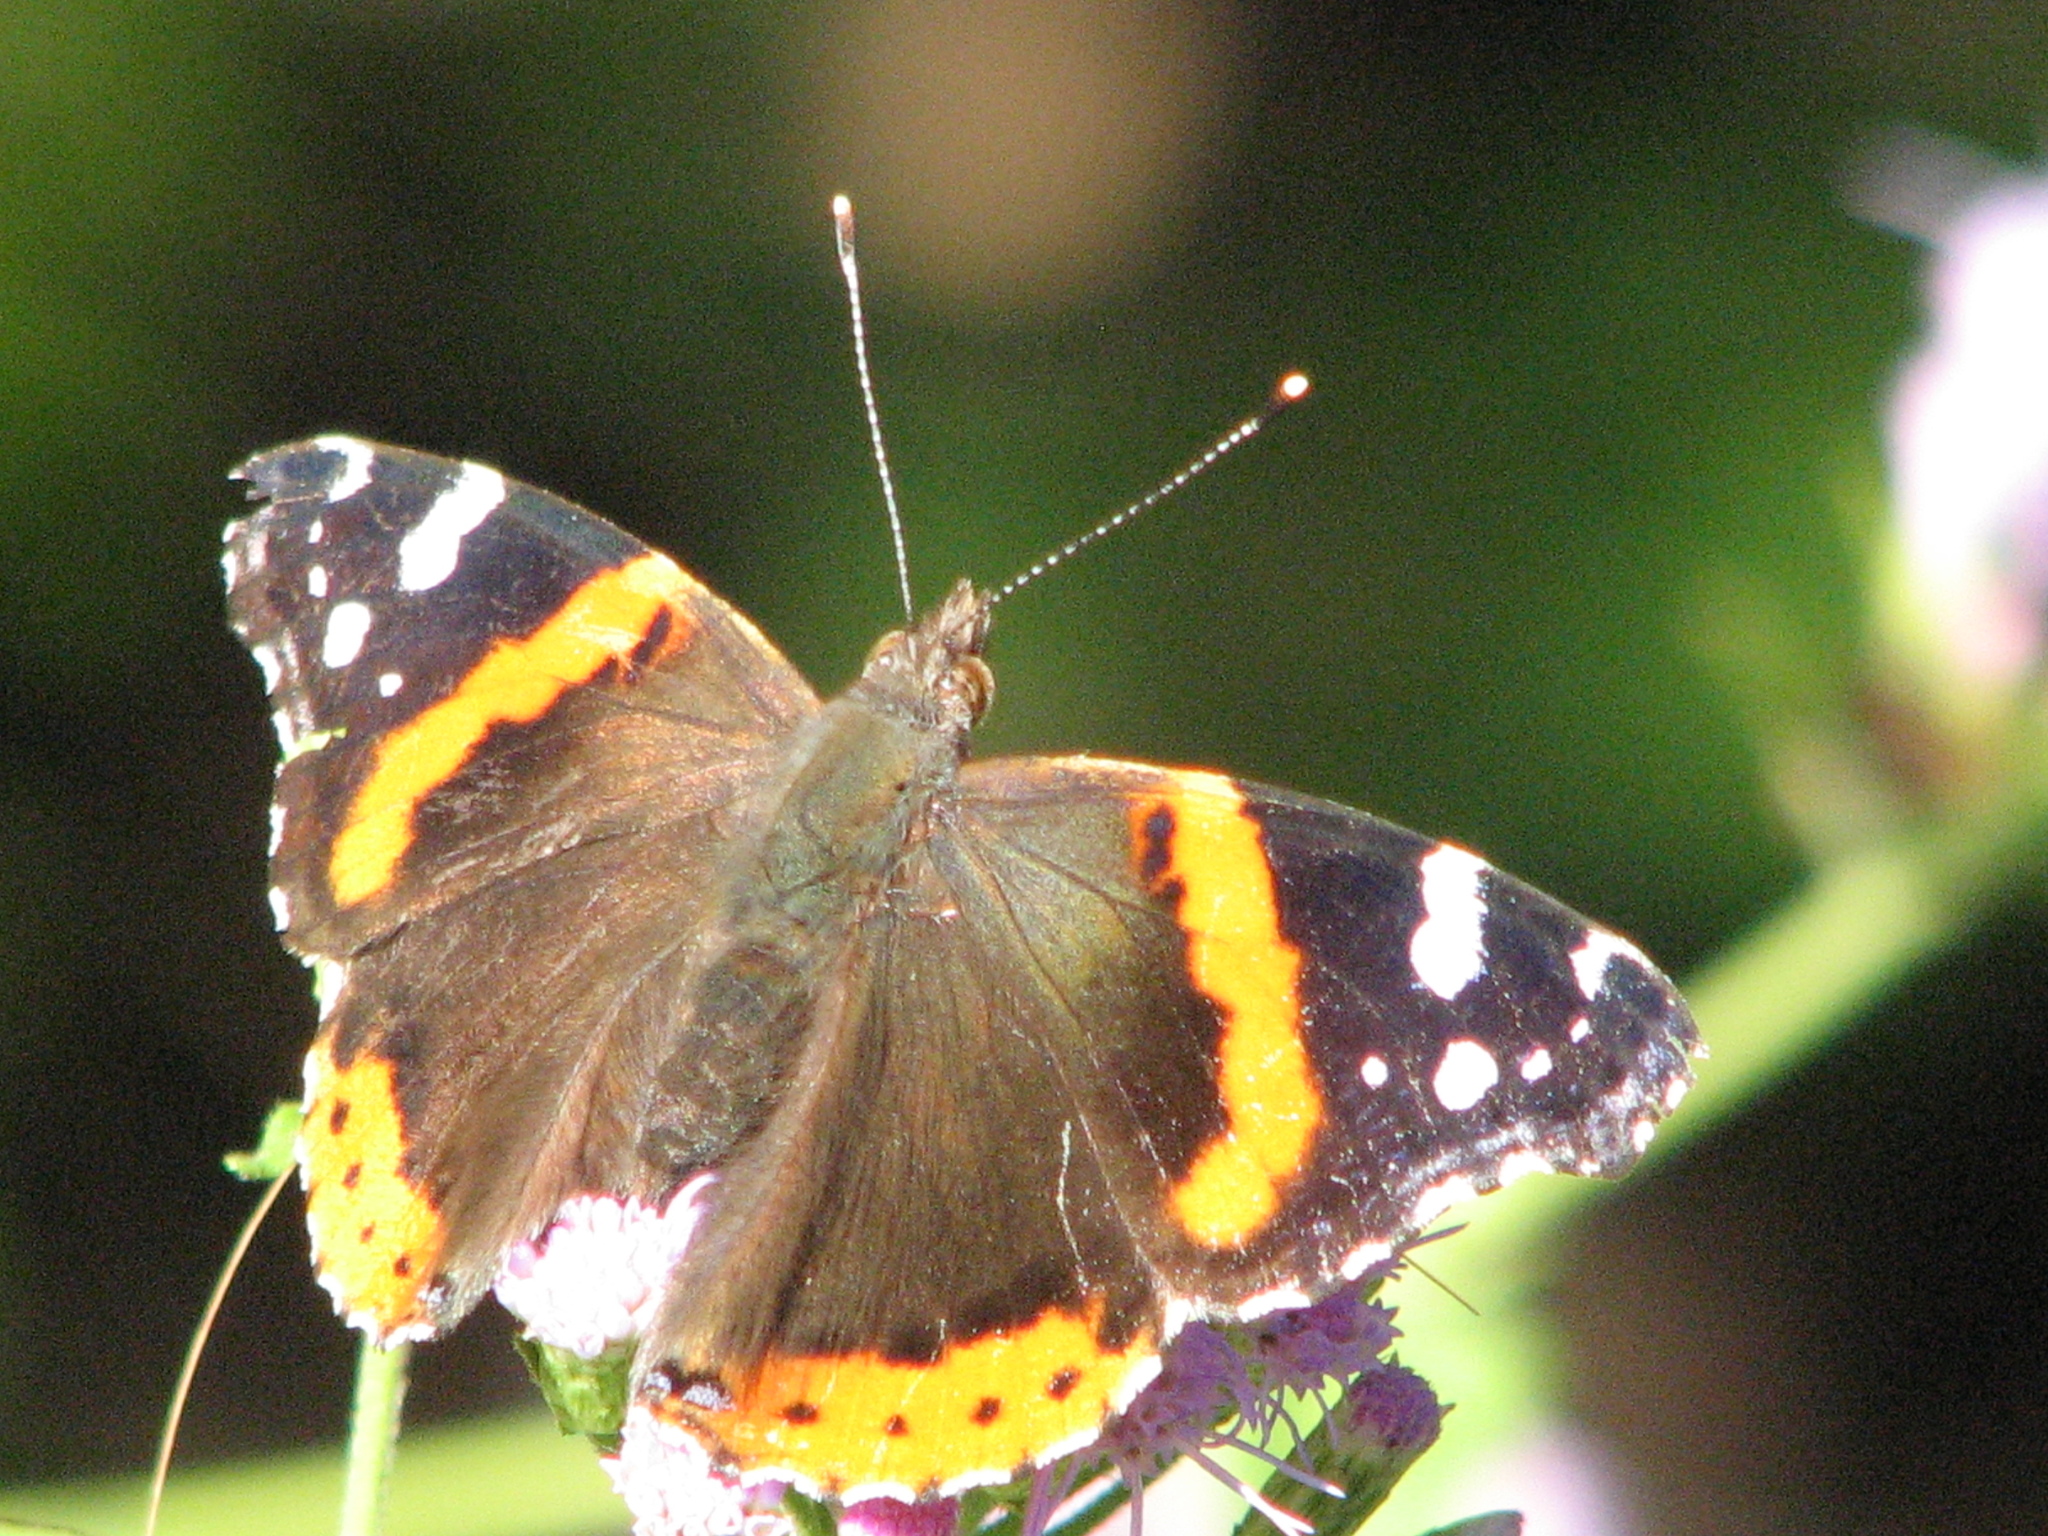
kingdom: Animalia
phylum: Arthropoda
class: Insecta
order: Lepidoptera
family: Nymphalidae
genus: Vanessa
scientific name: Vanessa atalanta
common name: Red admiral
